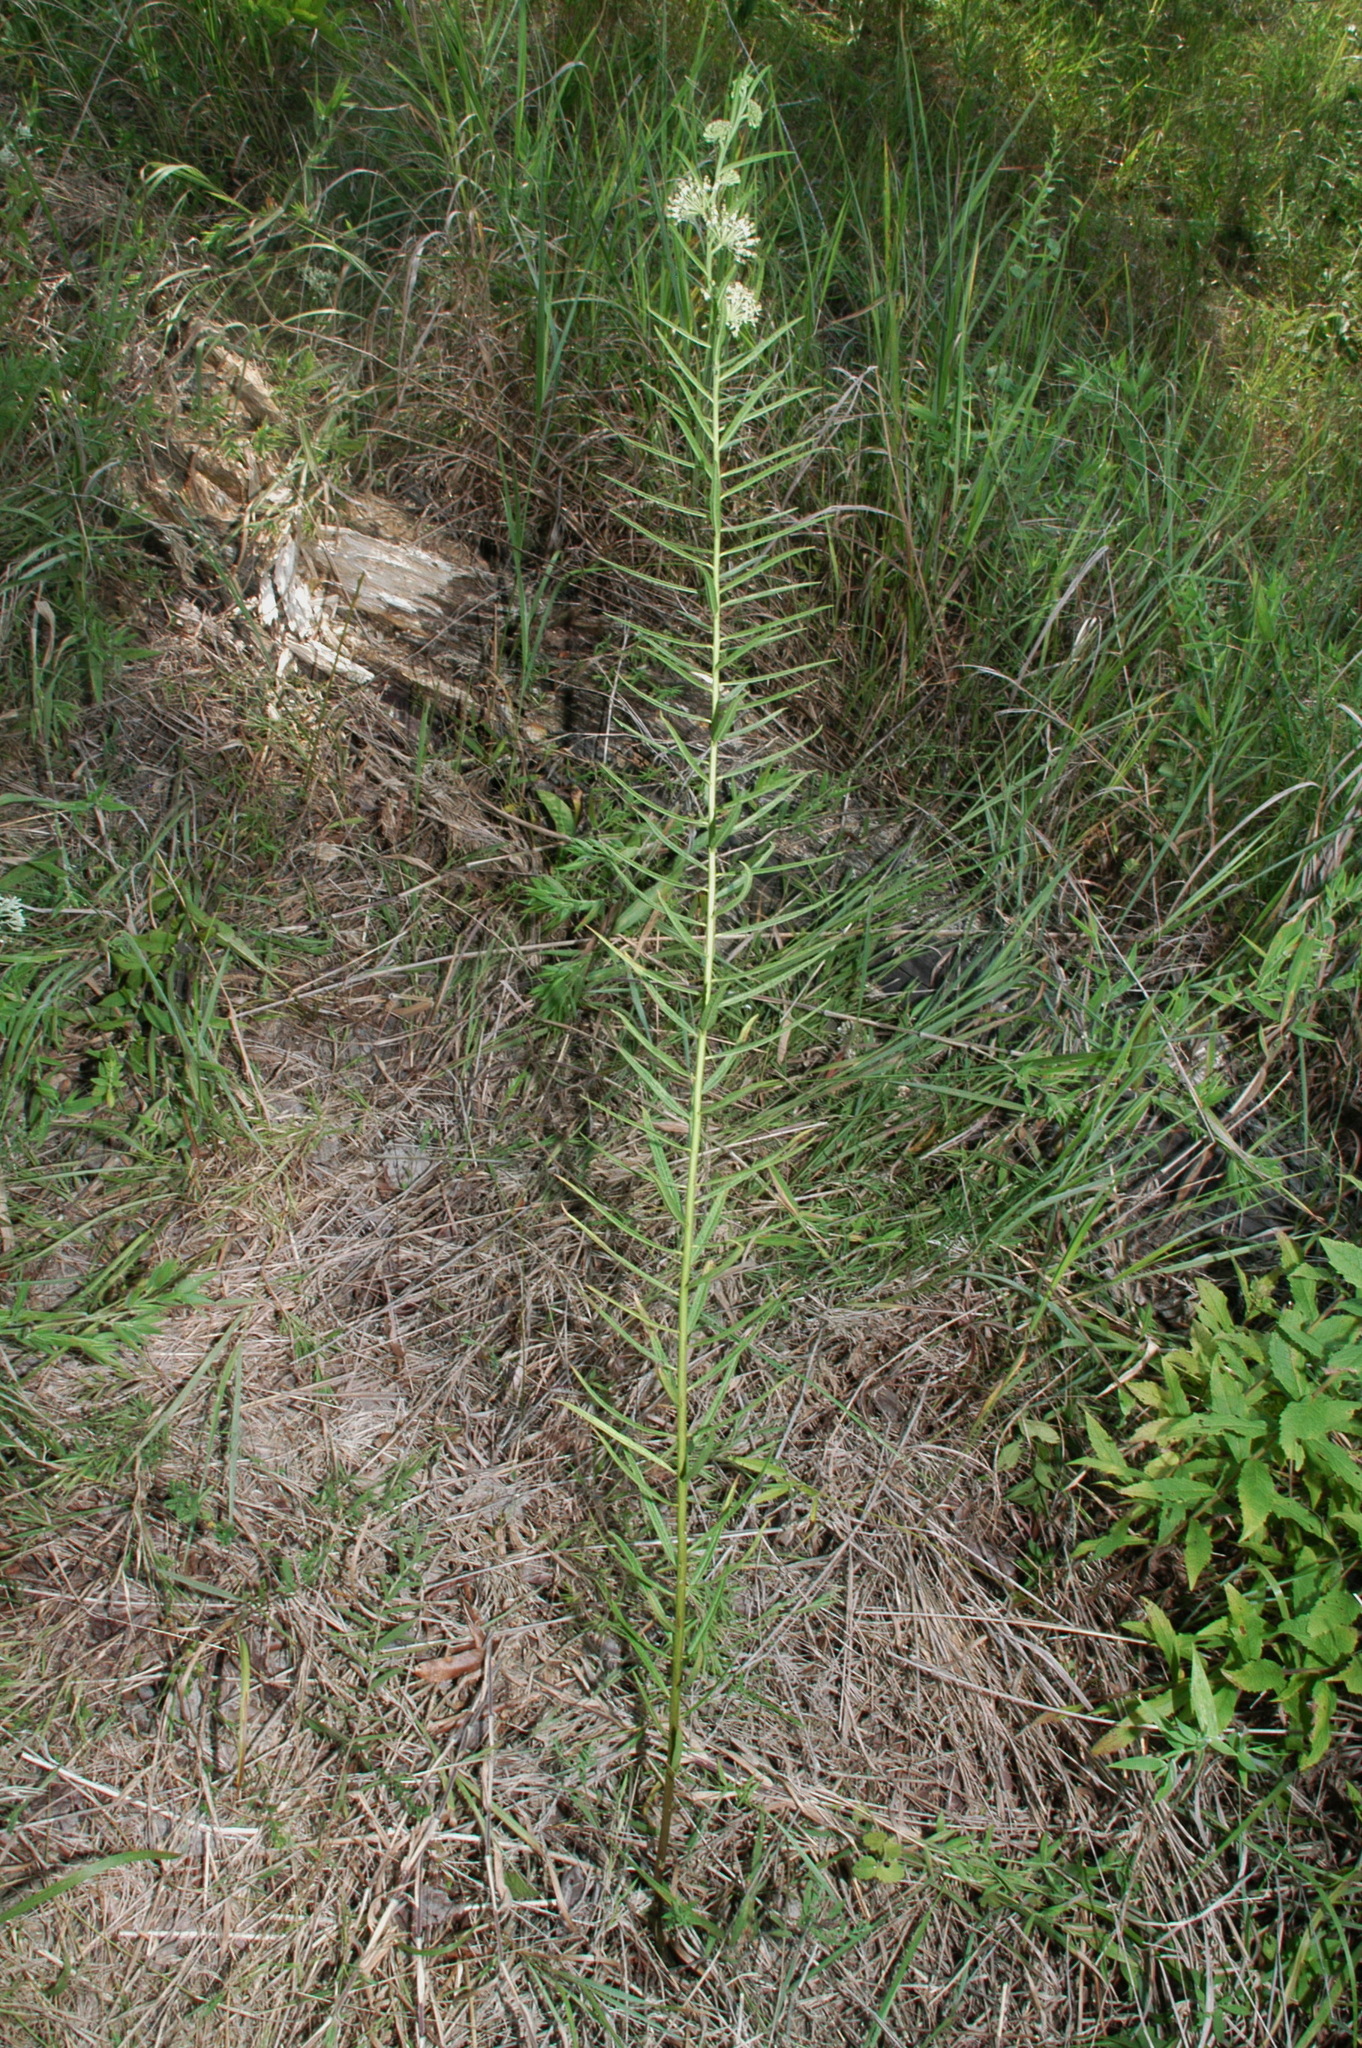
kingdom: Plantae
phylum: Tracheophyta
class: Magnoliopsida
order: Gentianales
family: Apocynaceae
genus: Asclepias
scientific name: Asclepias hirtella
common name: Prairie milkweed
